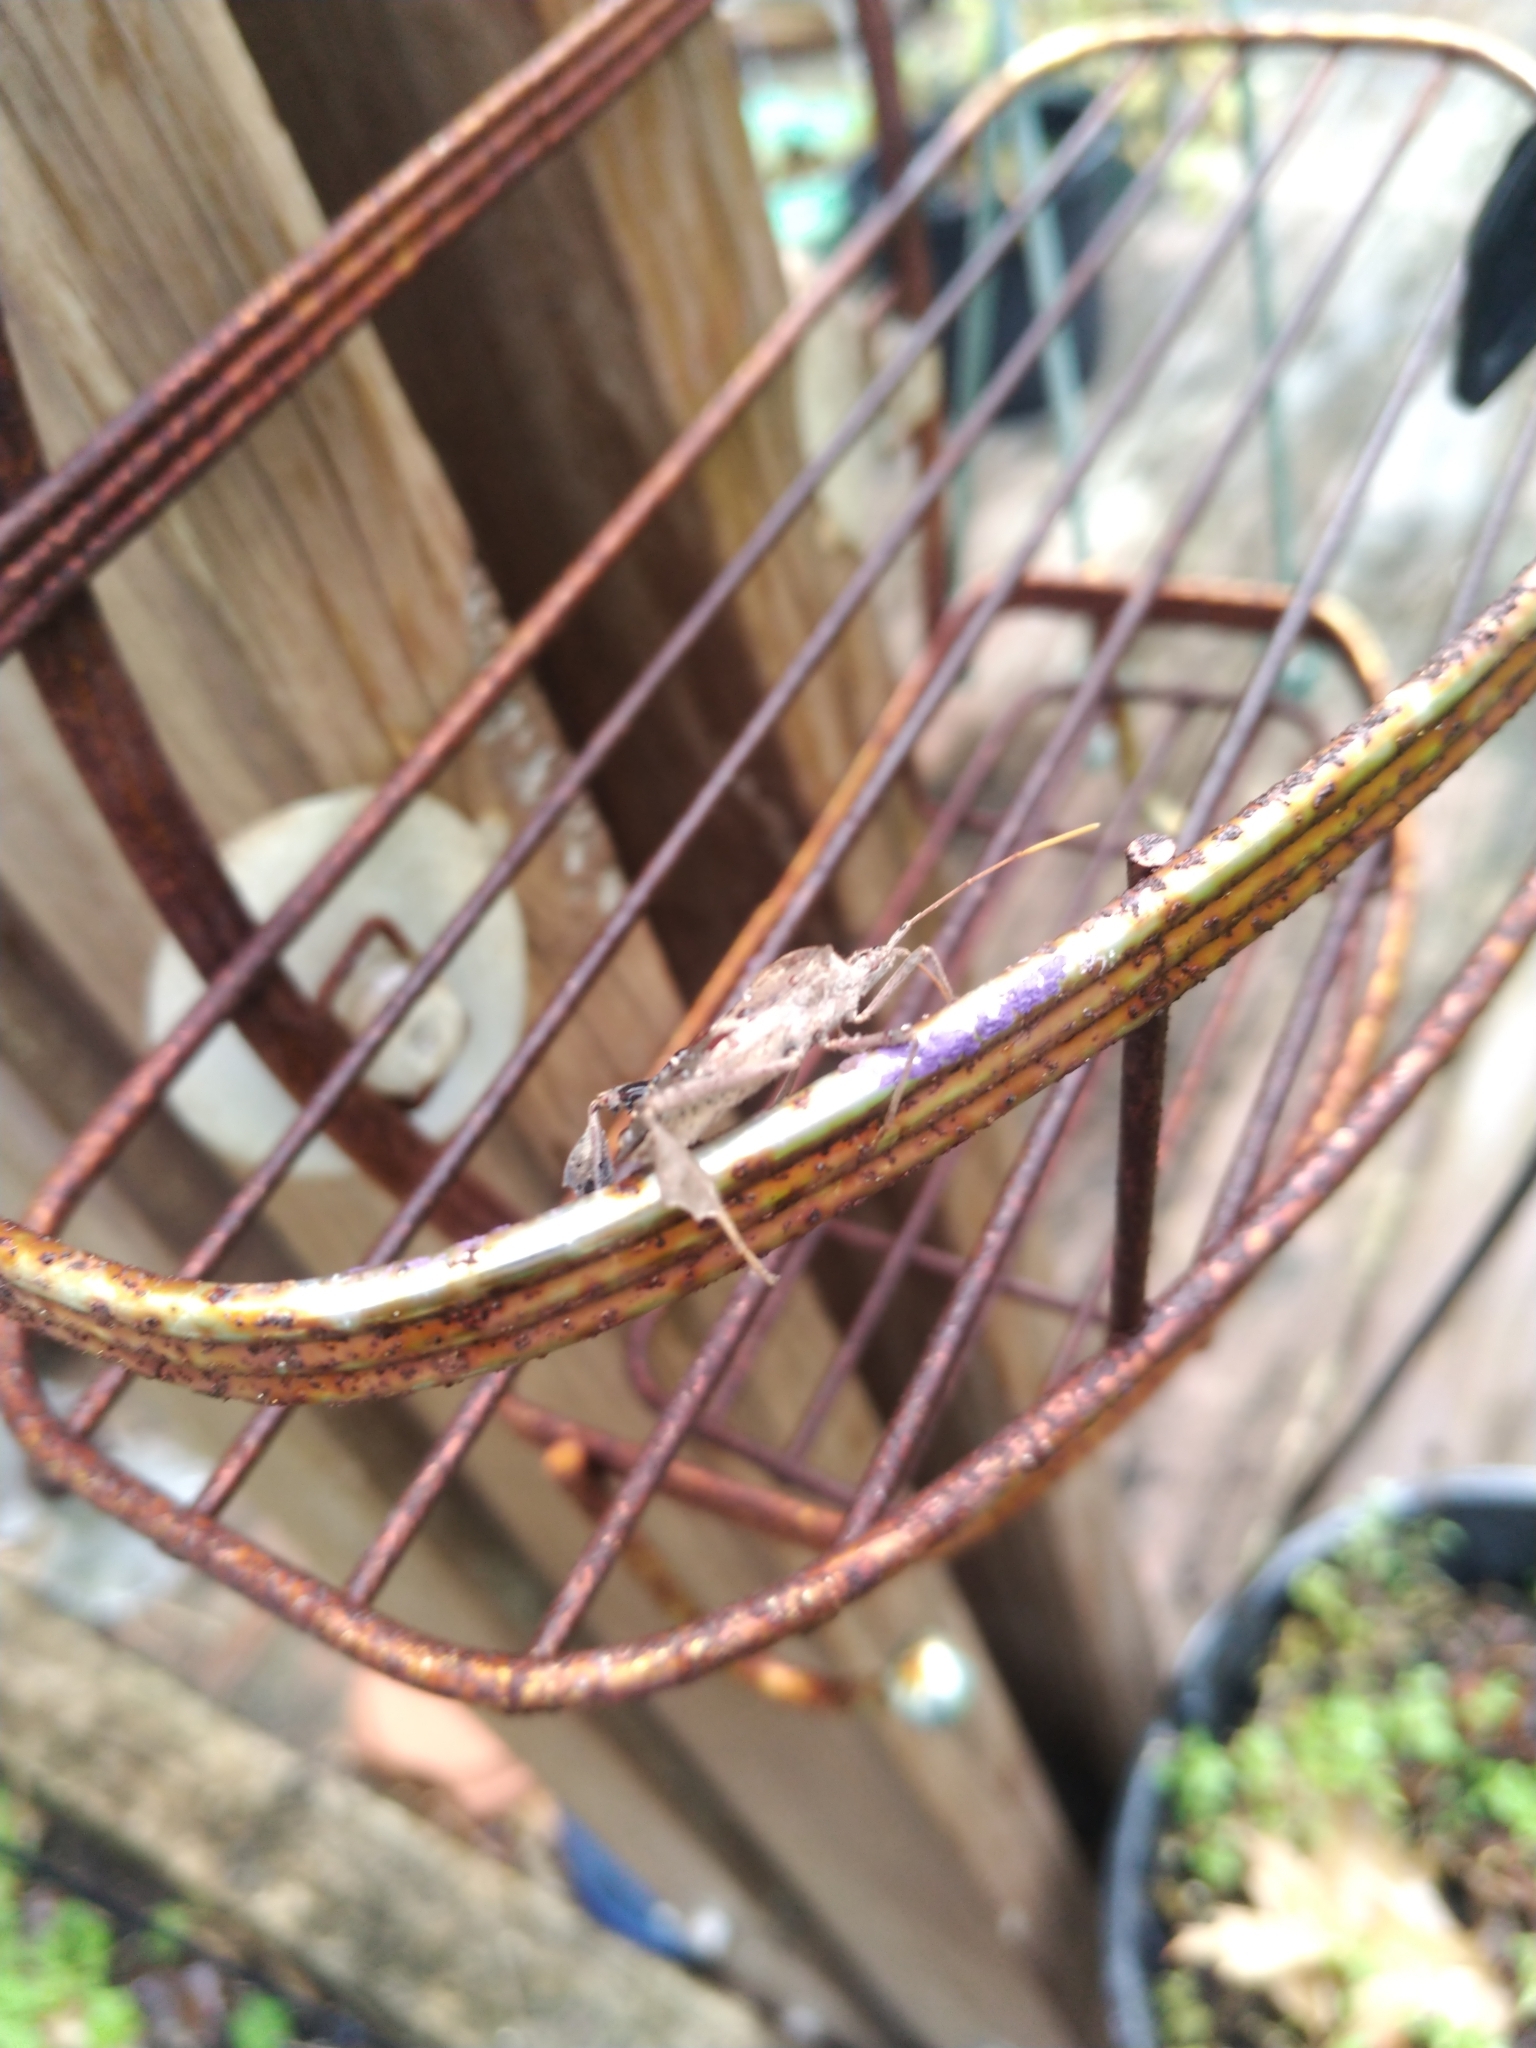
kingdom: Animalia
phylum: Arthropoda
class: Insecta
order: Hemiptera
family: Coreidae
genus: Leptoglossus
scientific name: Leptoglossus zonatus
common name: Large-legged bug
